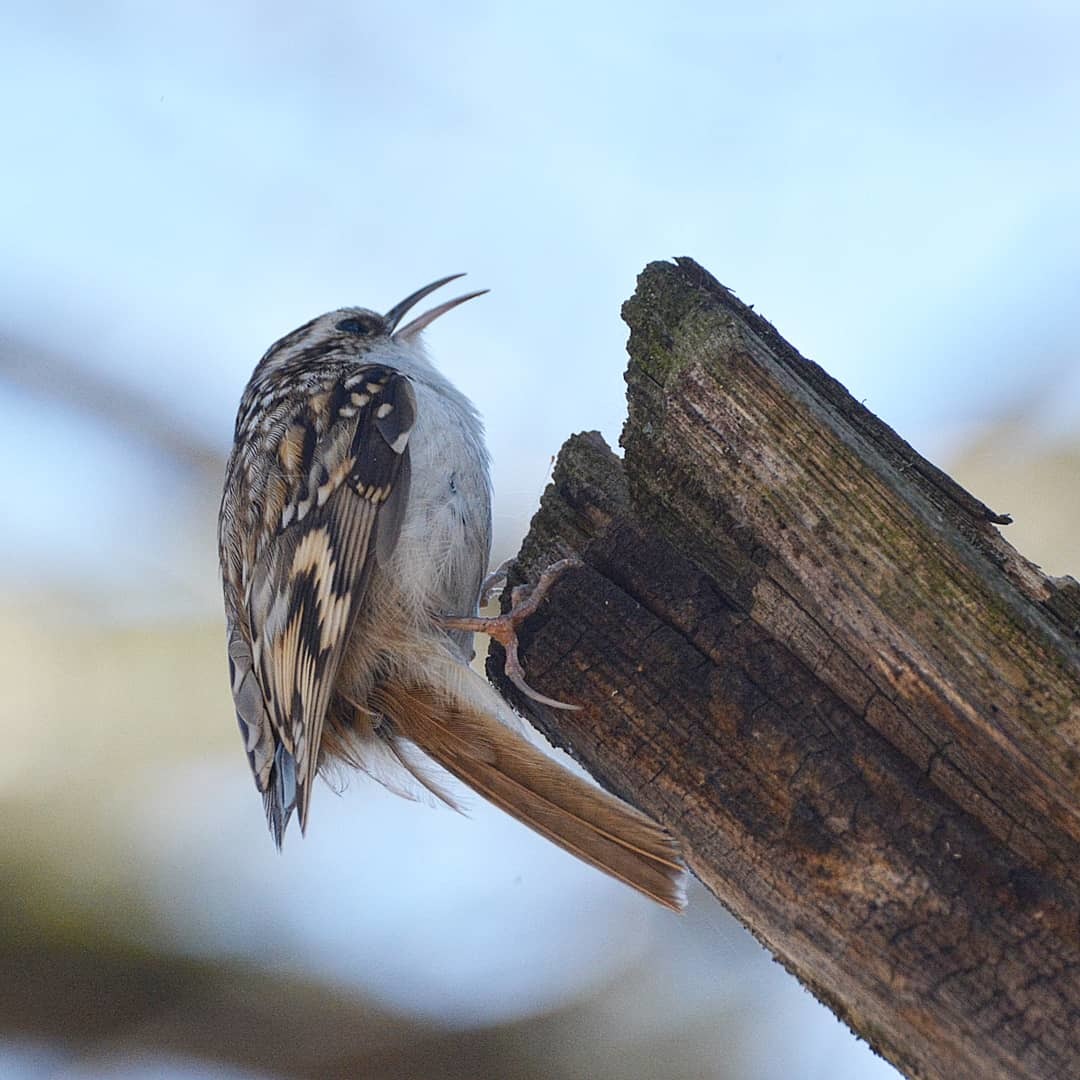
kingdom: Animalia
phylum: Chordata
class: Aves
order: Passeriformes
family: Certhiidae
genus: Certhia
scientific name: Certhia familiaris
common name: Eurasian treecreeper
